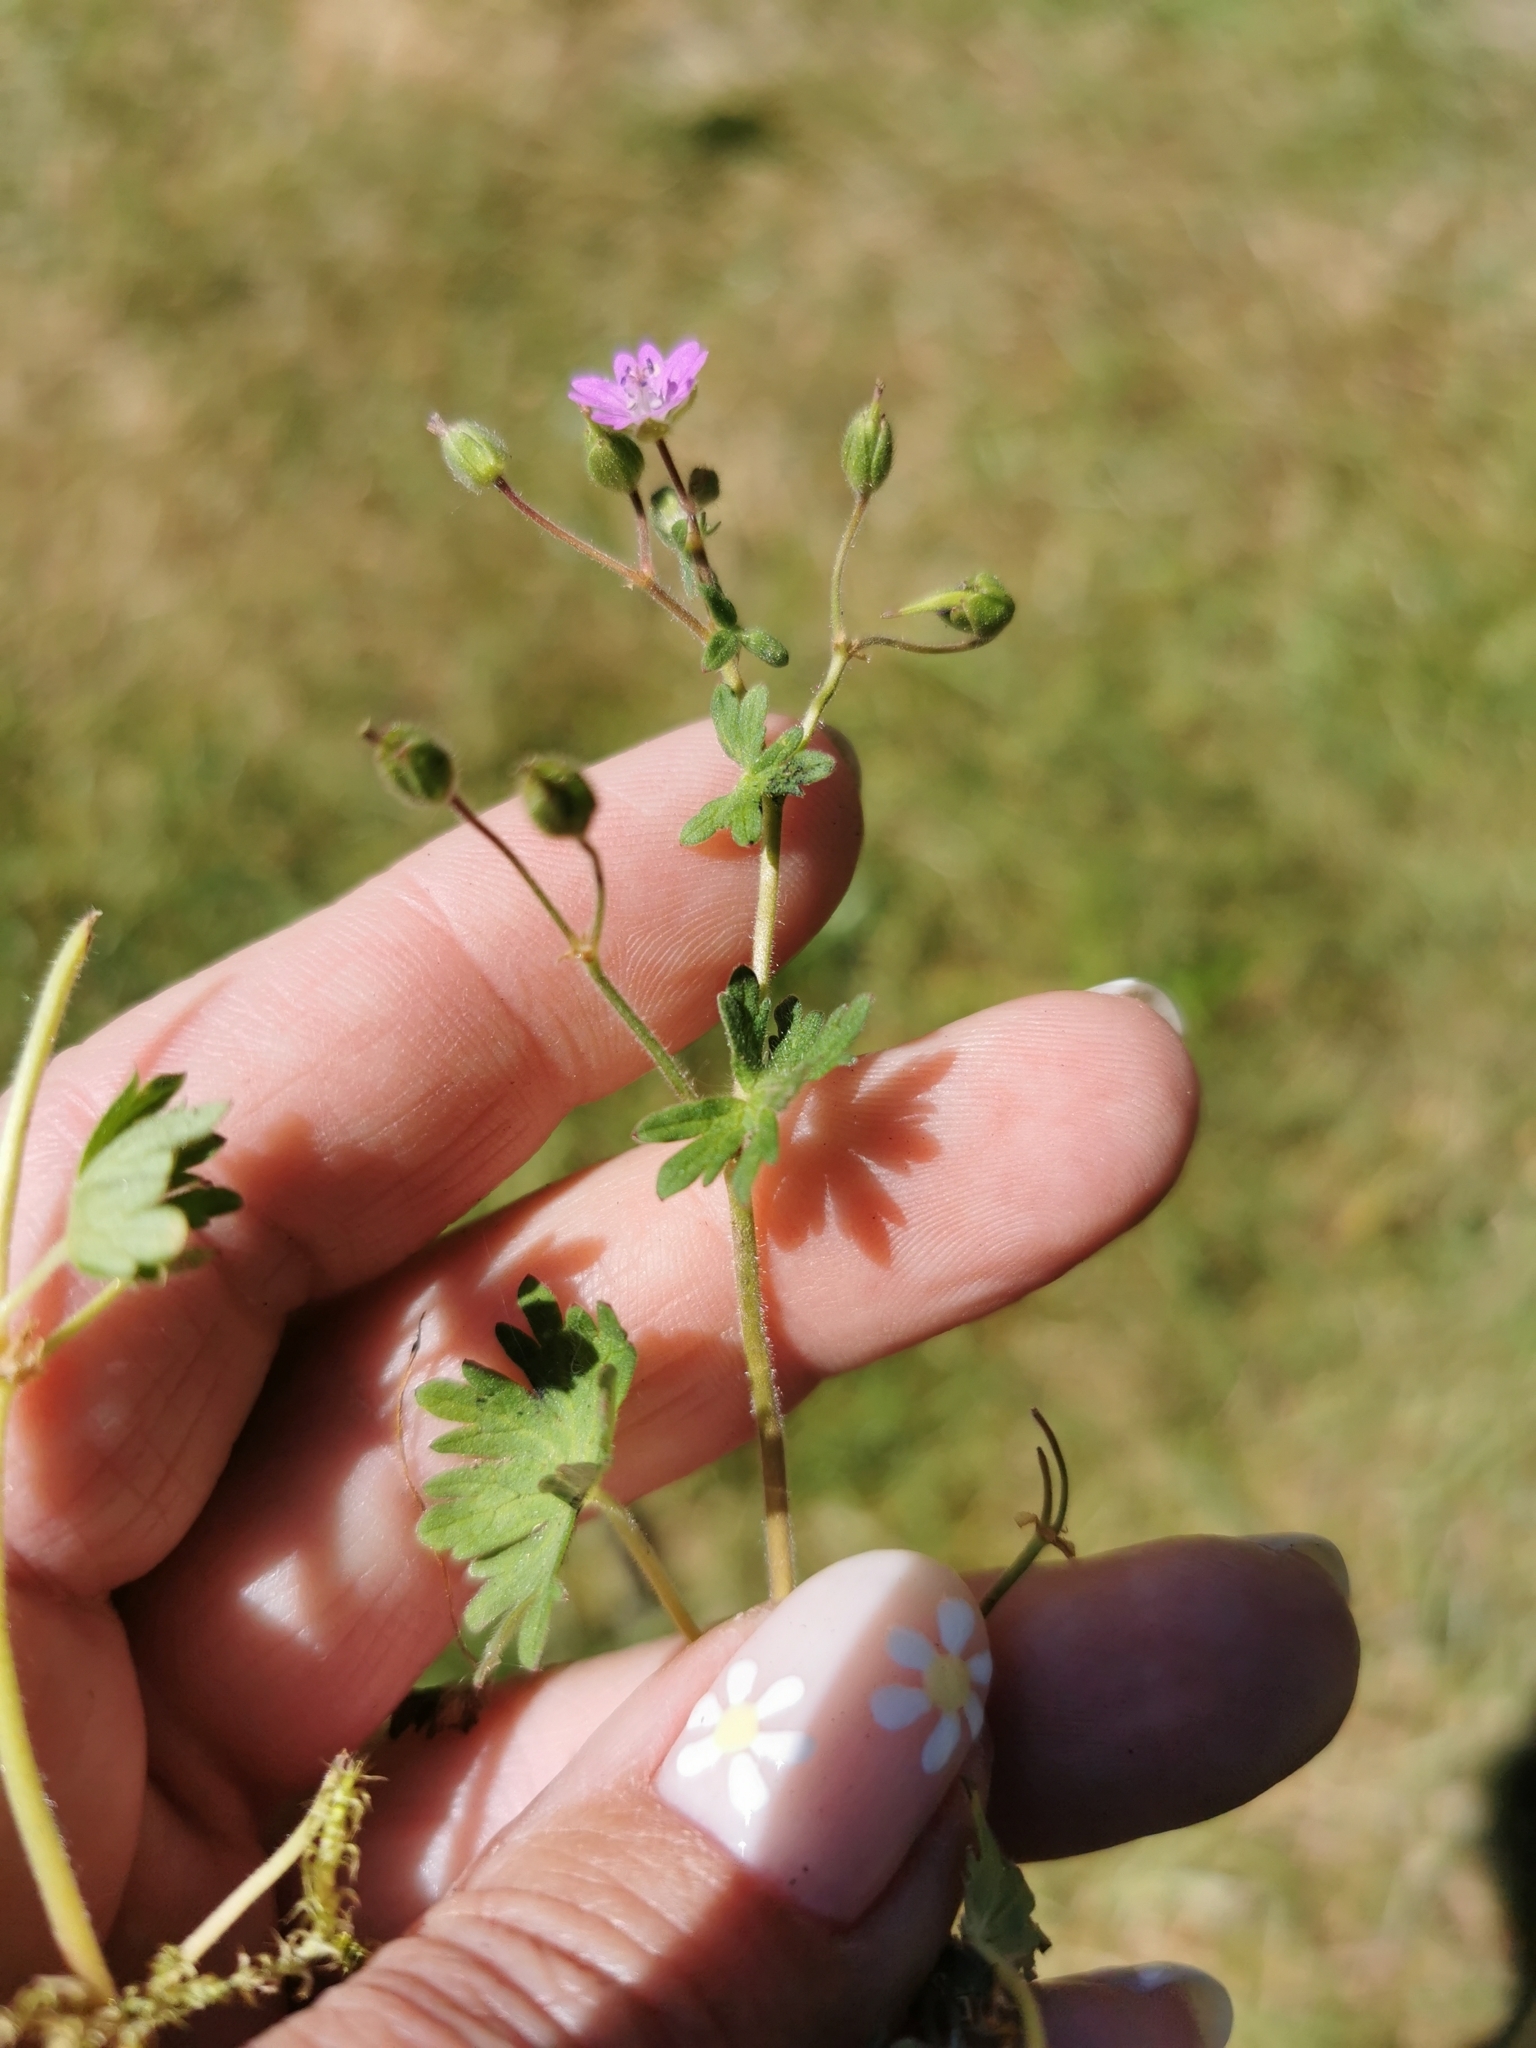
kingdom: Plantae
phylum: Tracheophyta
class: Magnoliopsida
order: Geraniales
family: Geraniaceae
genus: Geranium
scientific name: Geranium molle
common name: Dove's-foot crane's-bill
